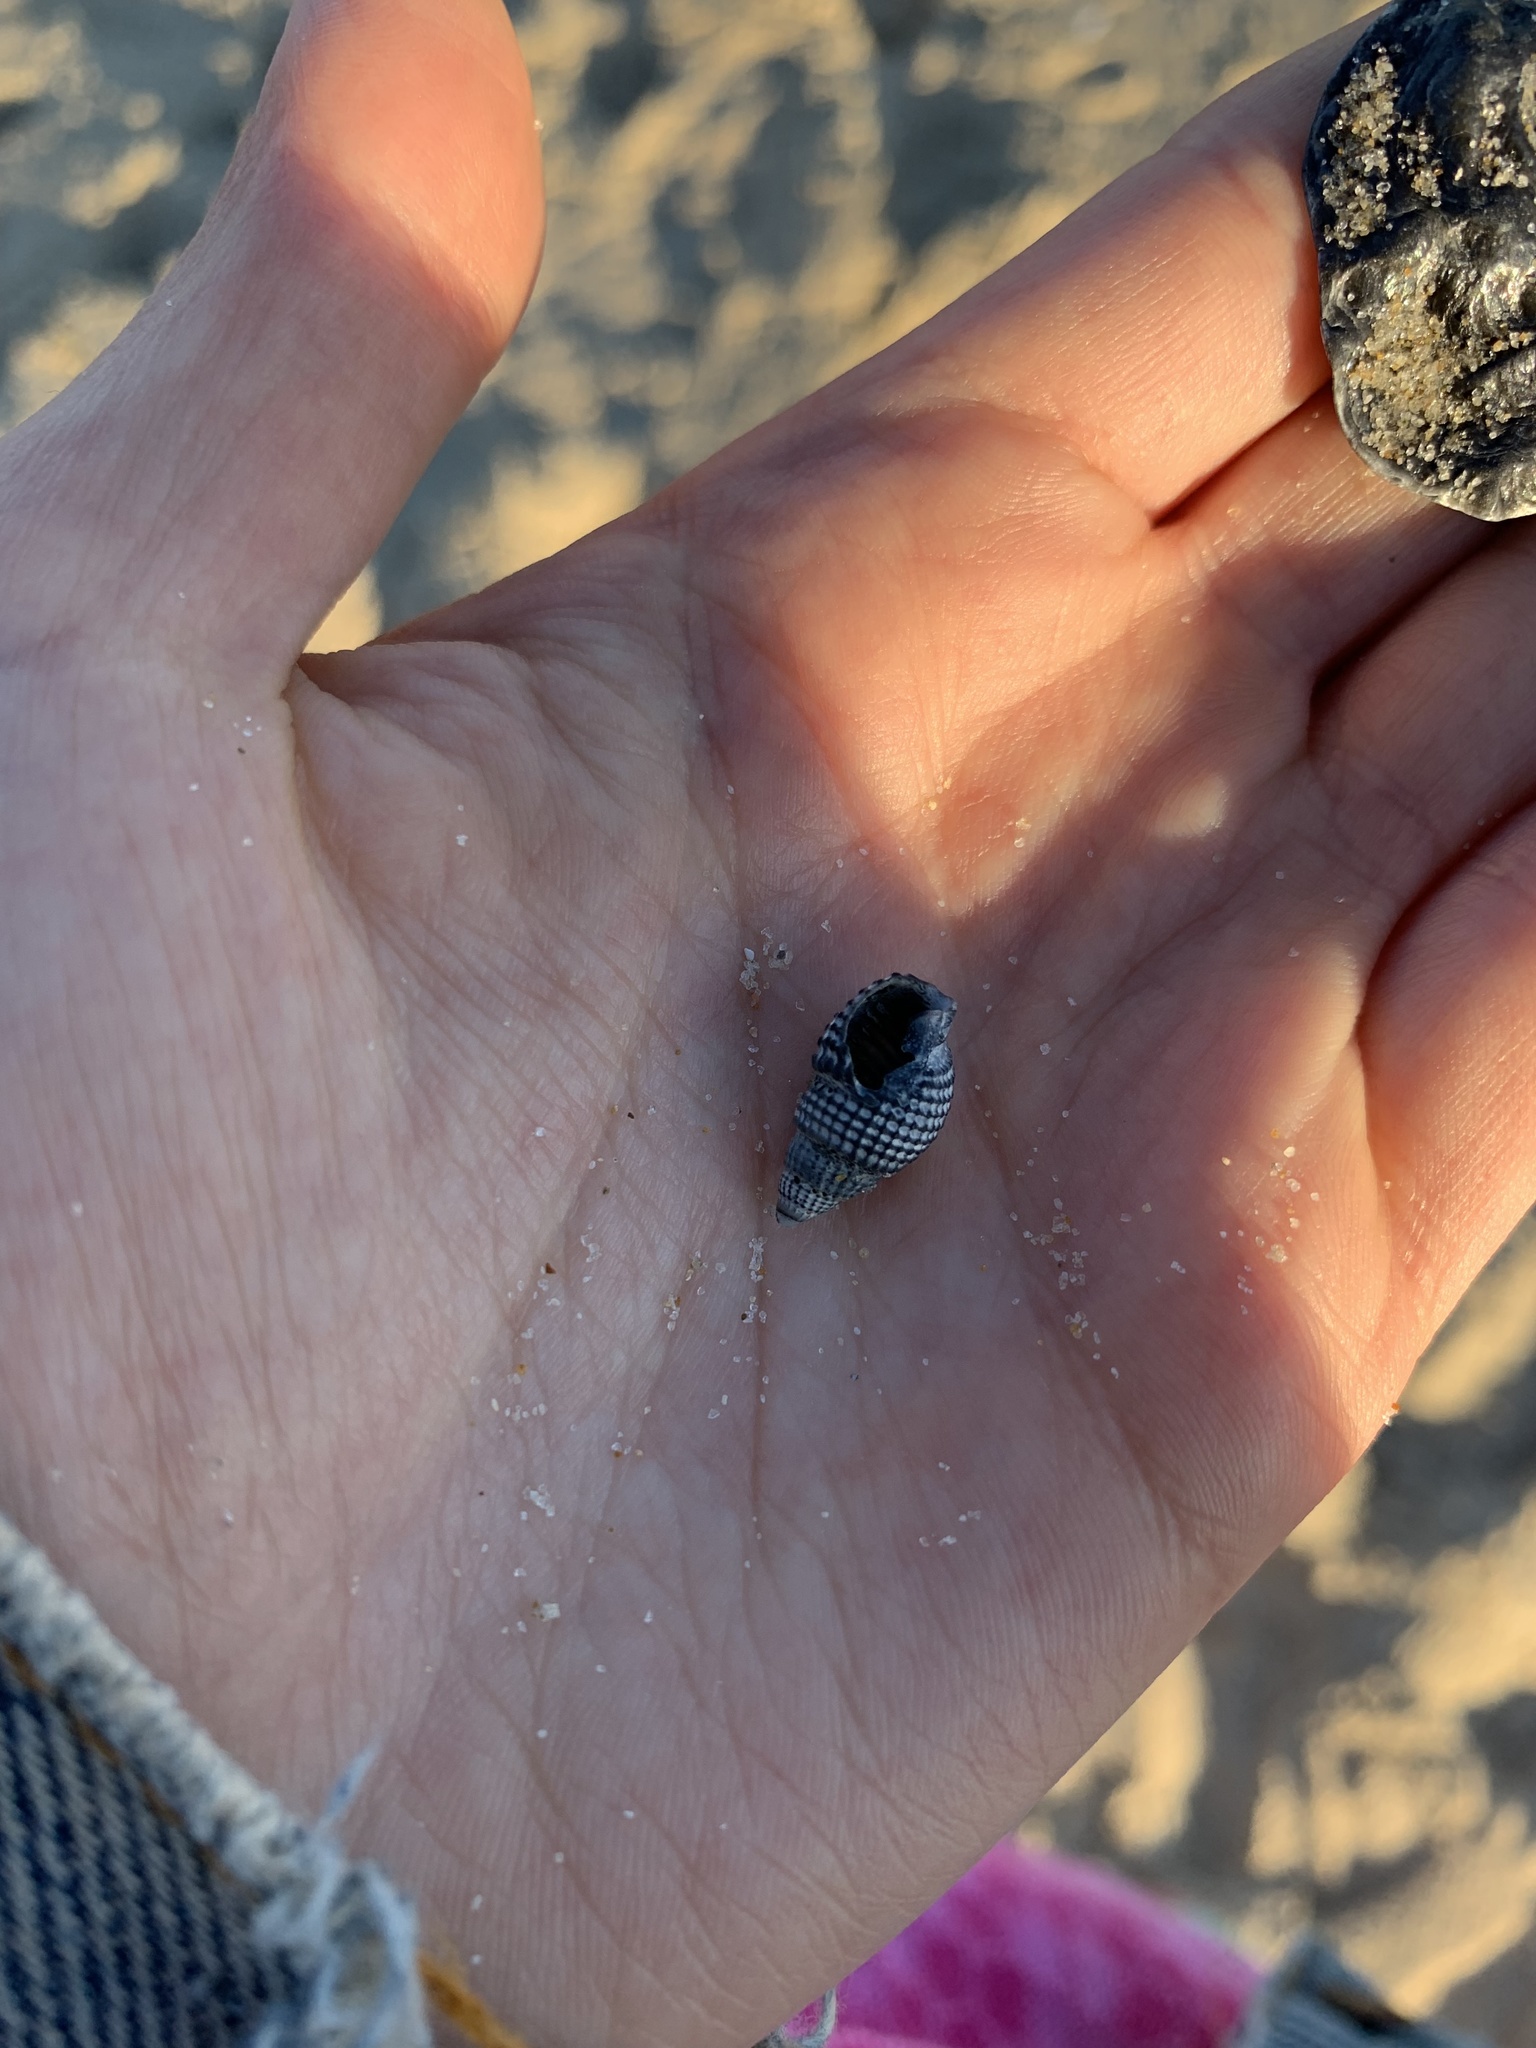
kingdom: Animalia
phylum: Mollusca
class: Gastropoda
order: Neogastropoda
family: Nassariidae
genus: Ilyanassa
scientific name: Ilyanassa trivittata
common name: Three-line mudsnail
